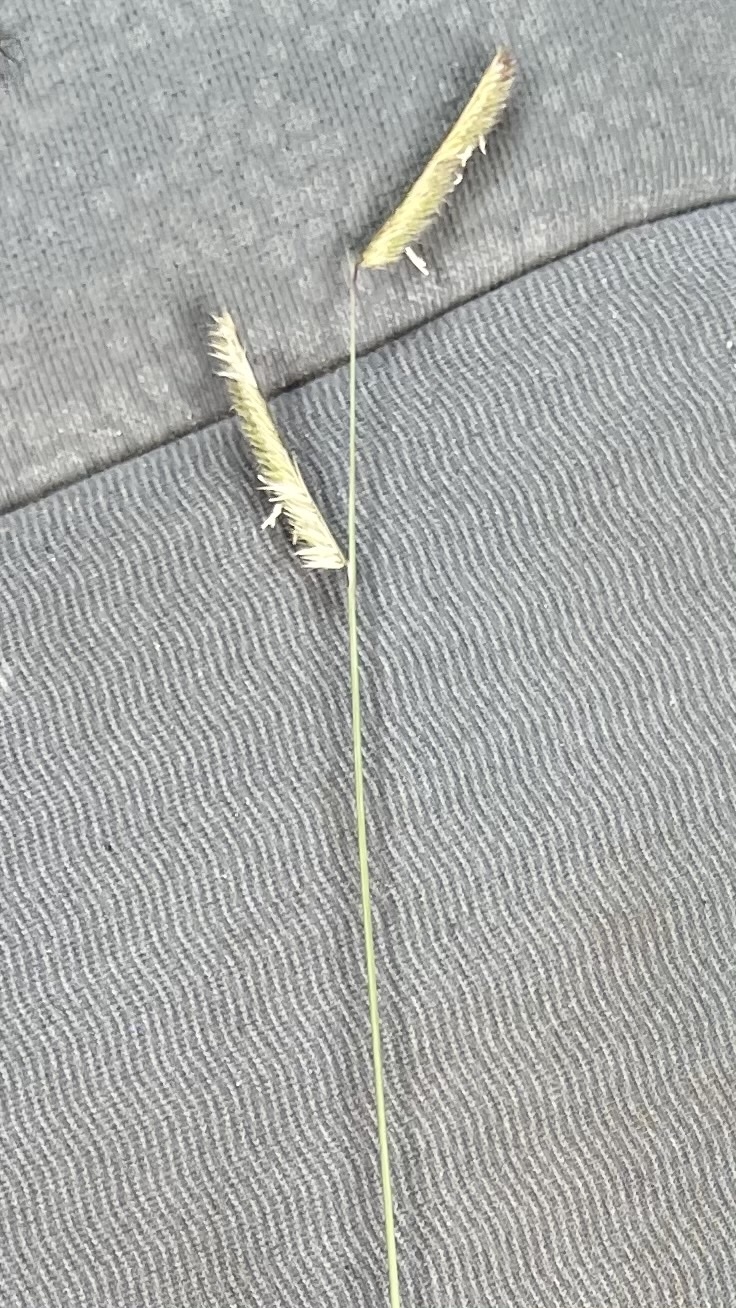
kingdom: Plantae
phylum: Tracheophyta
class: Liliopsida
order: Poales
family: Poaceae
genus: Bouteloua
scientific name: Bouteloua gracilis
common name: Blue grama
